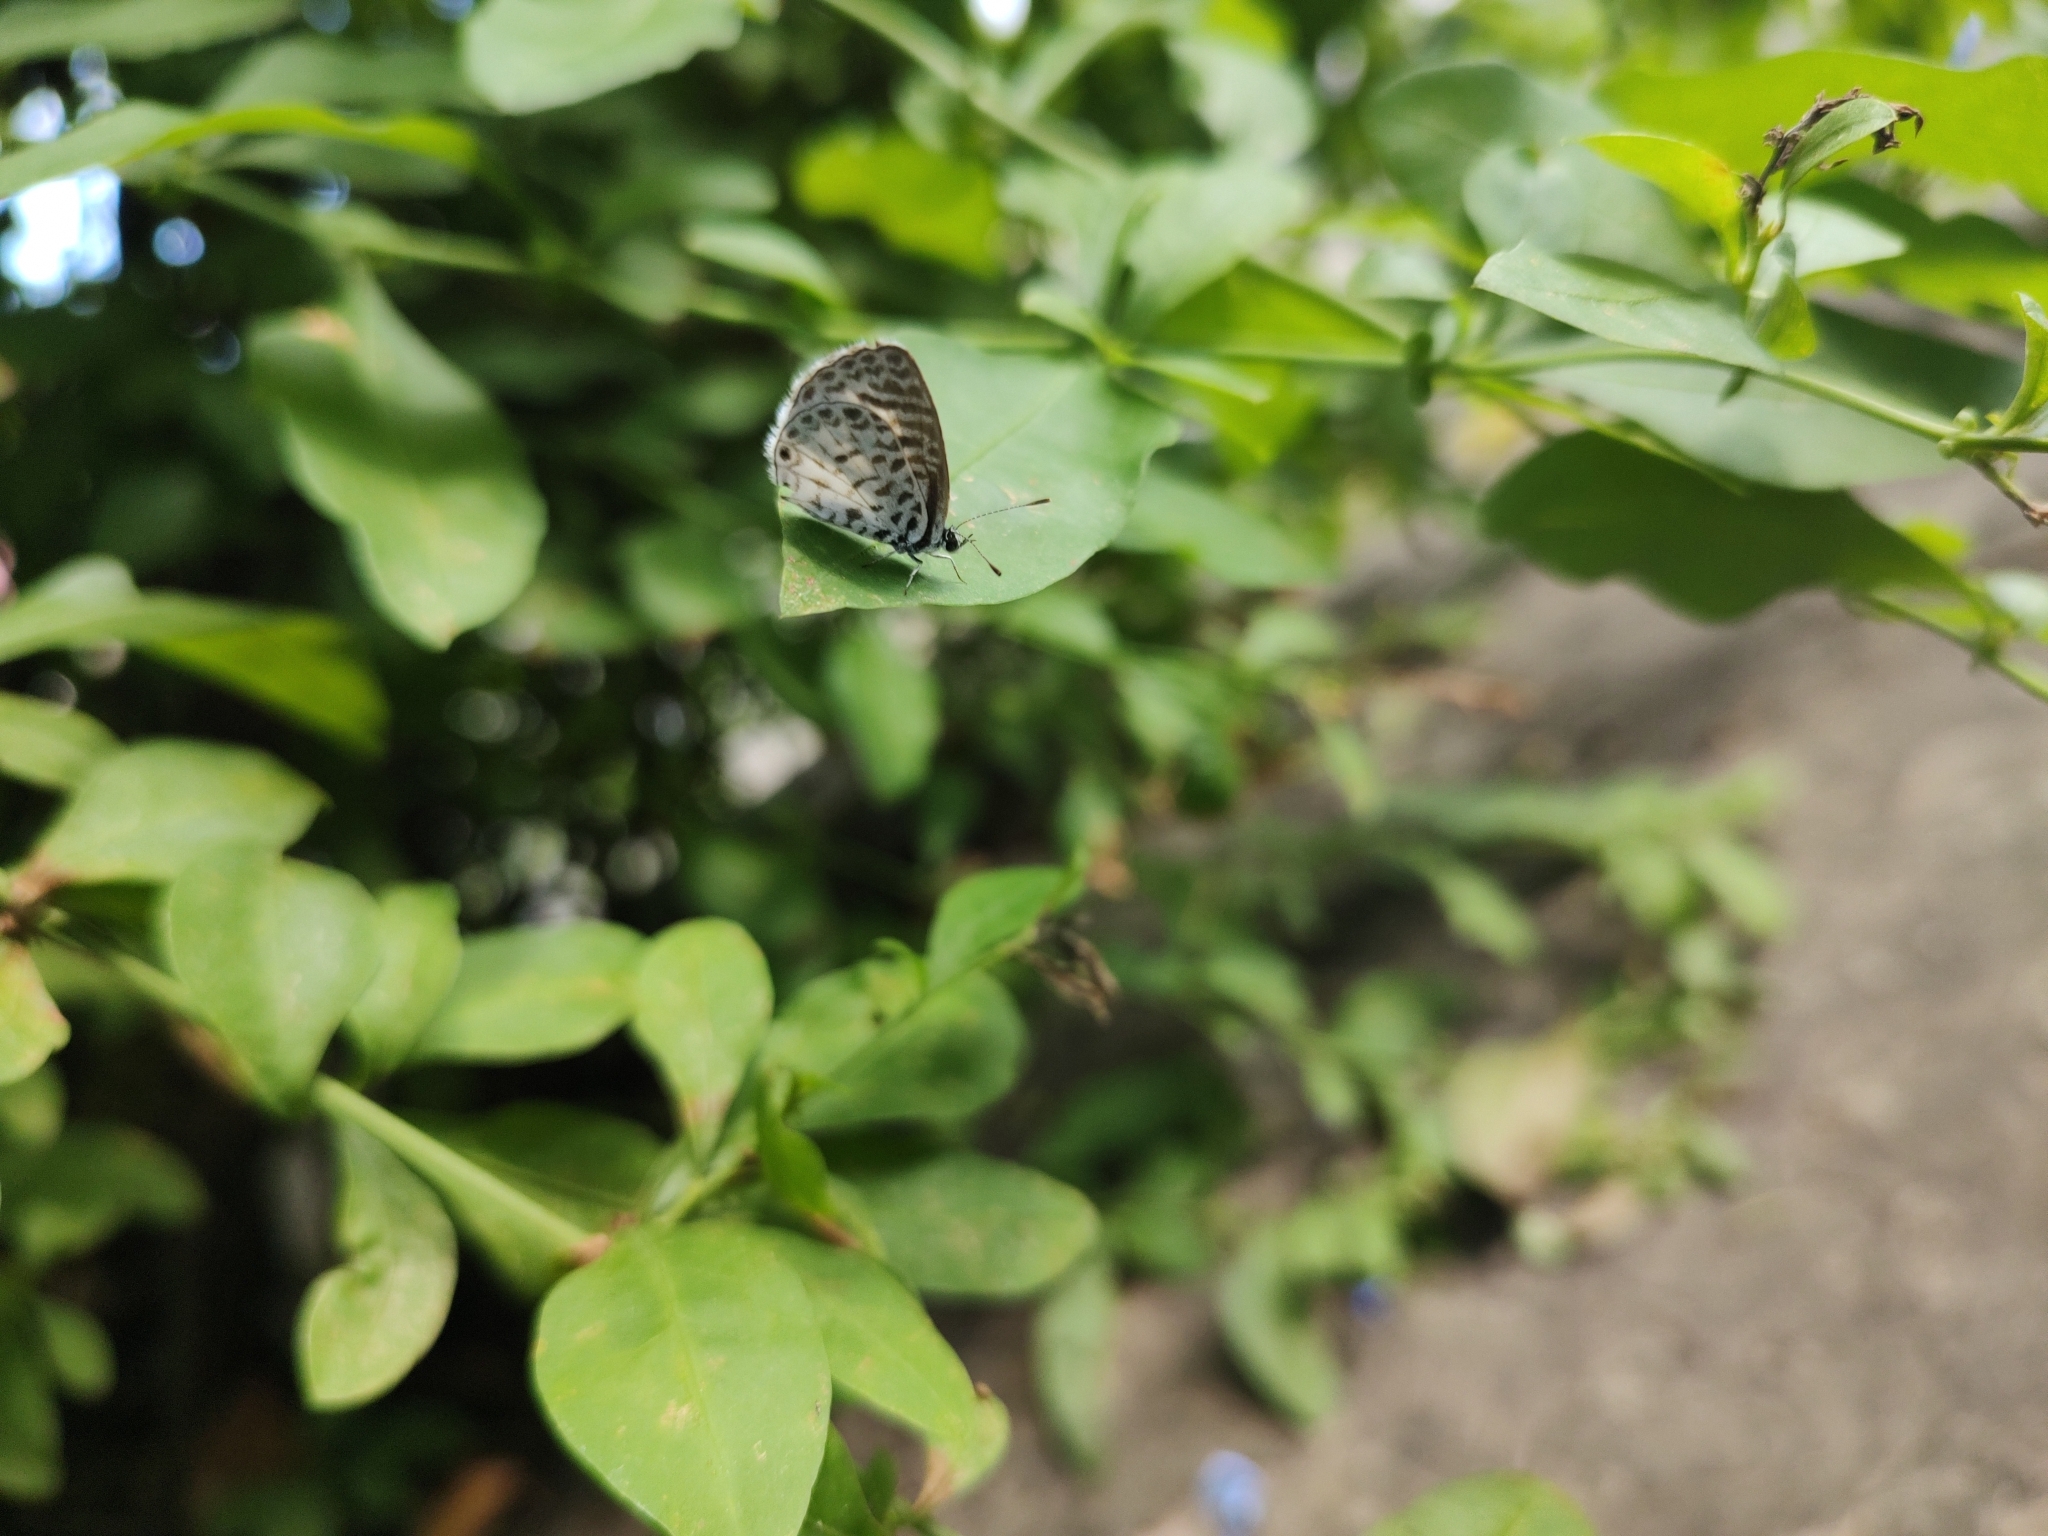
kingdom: Animalia
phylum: Arthropoda
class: Insecta
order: Lepidoptera
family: Lycaenidae
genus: Leptotes
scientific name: Leptotes cassius
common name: Cassius blue
